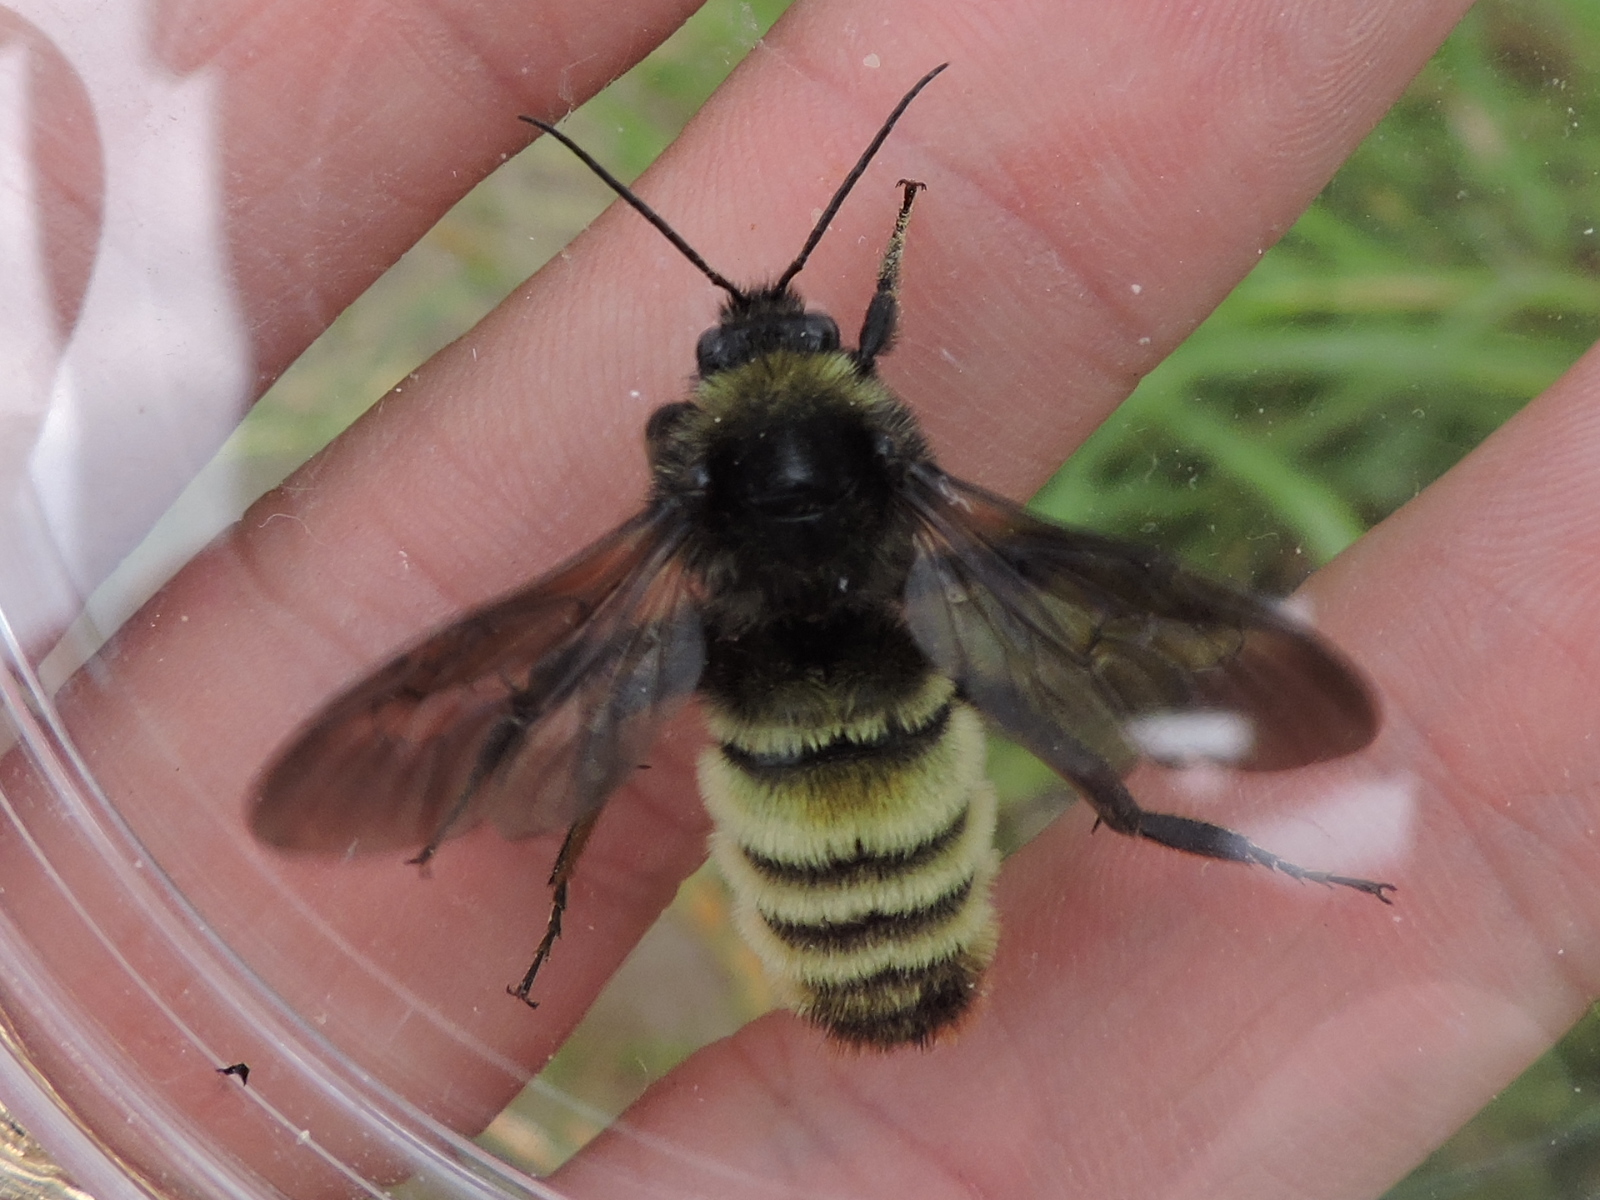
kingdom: Animalia
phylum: Arthropoda
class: Insecta
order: Hymenoptera
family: Apidae
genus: Bombus
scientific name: Bombus pensylvanicus
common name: Bumble bee
